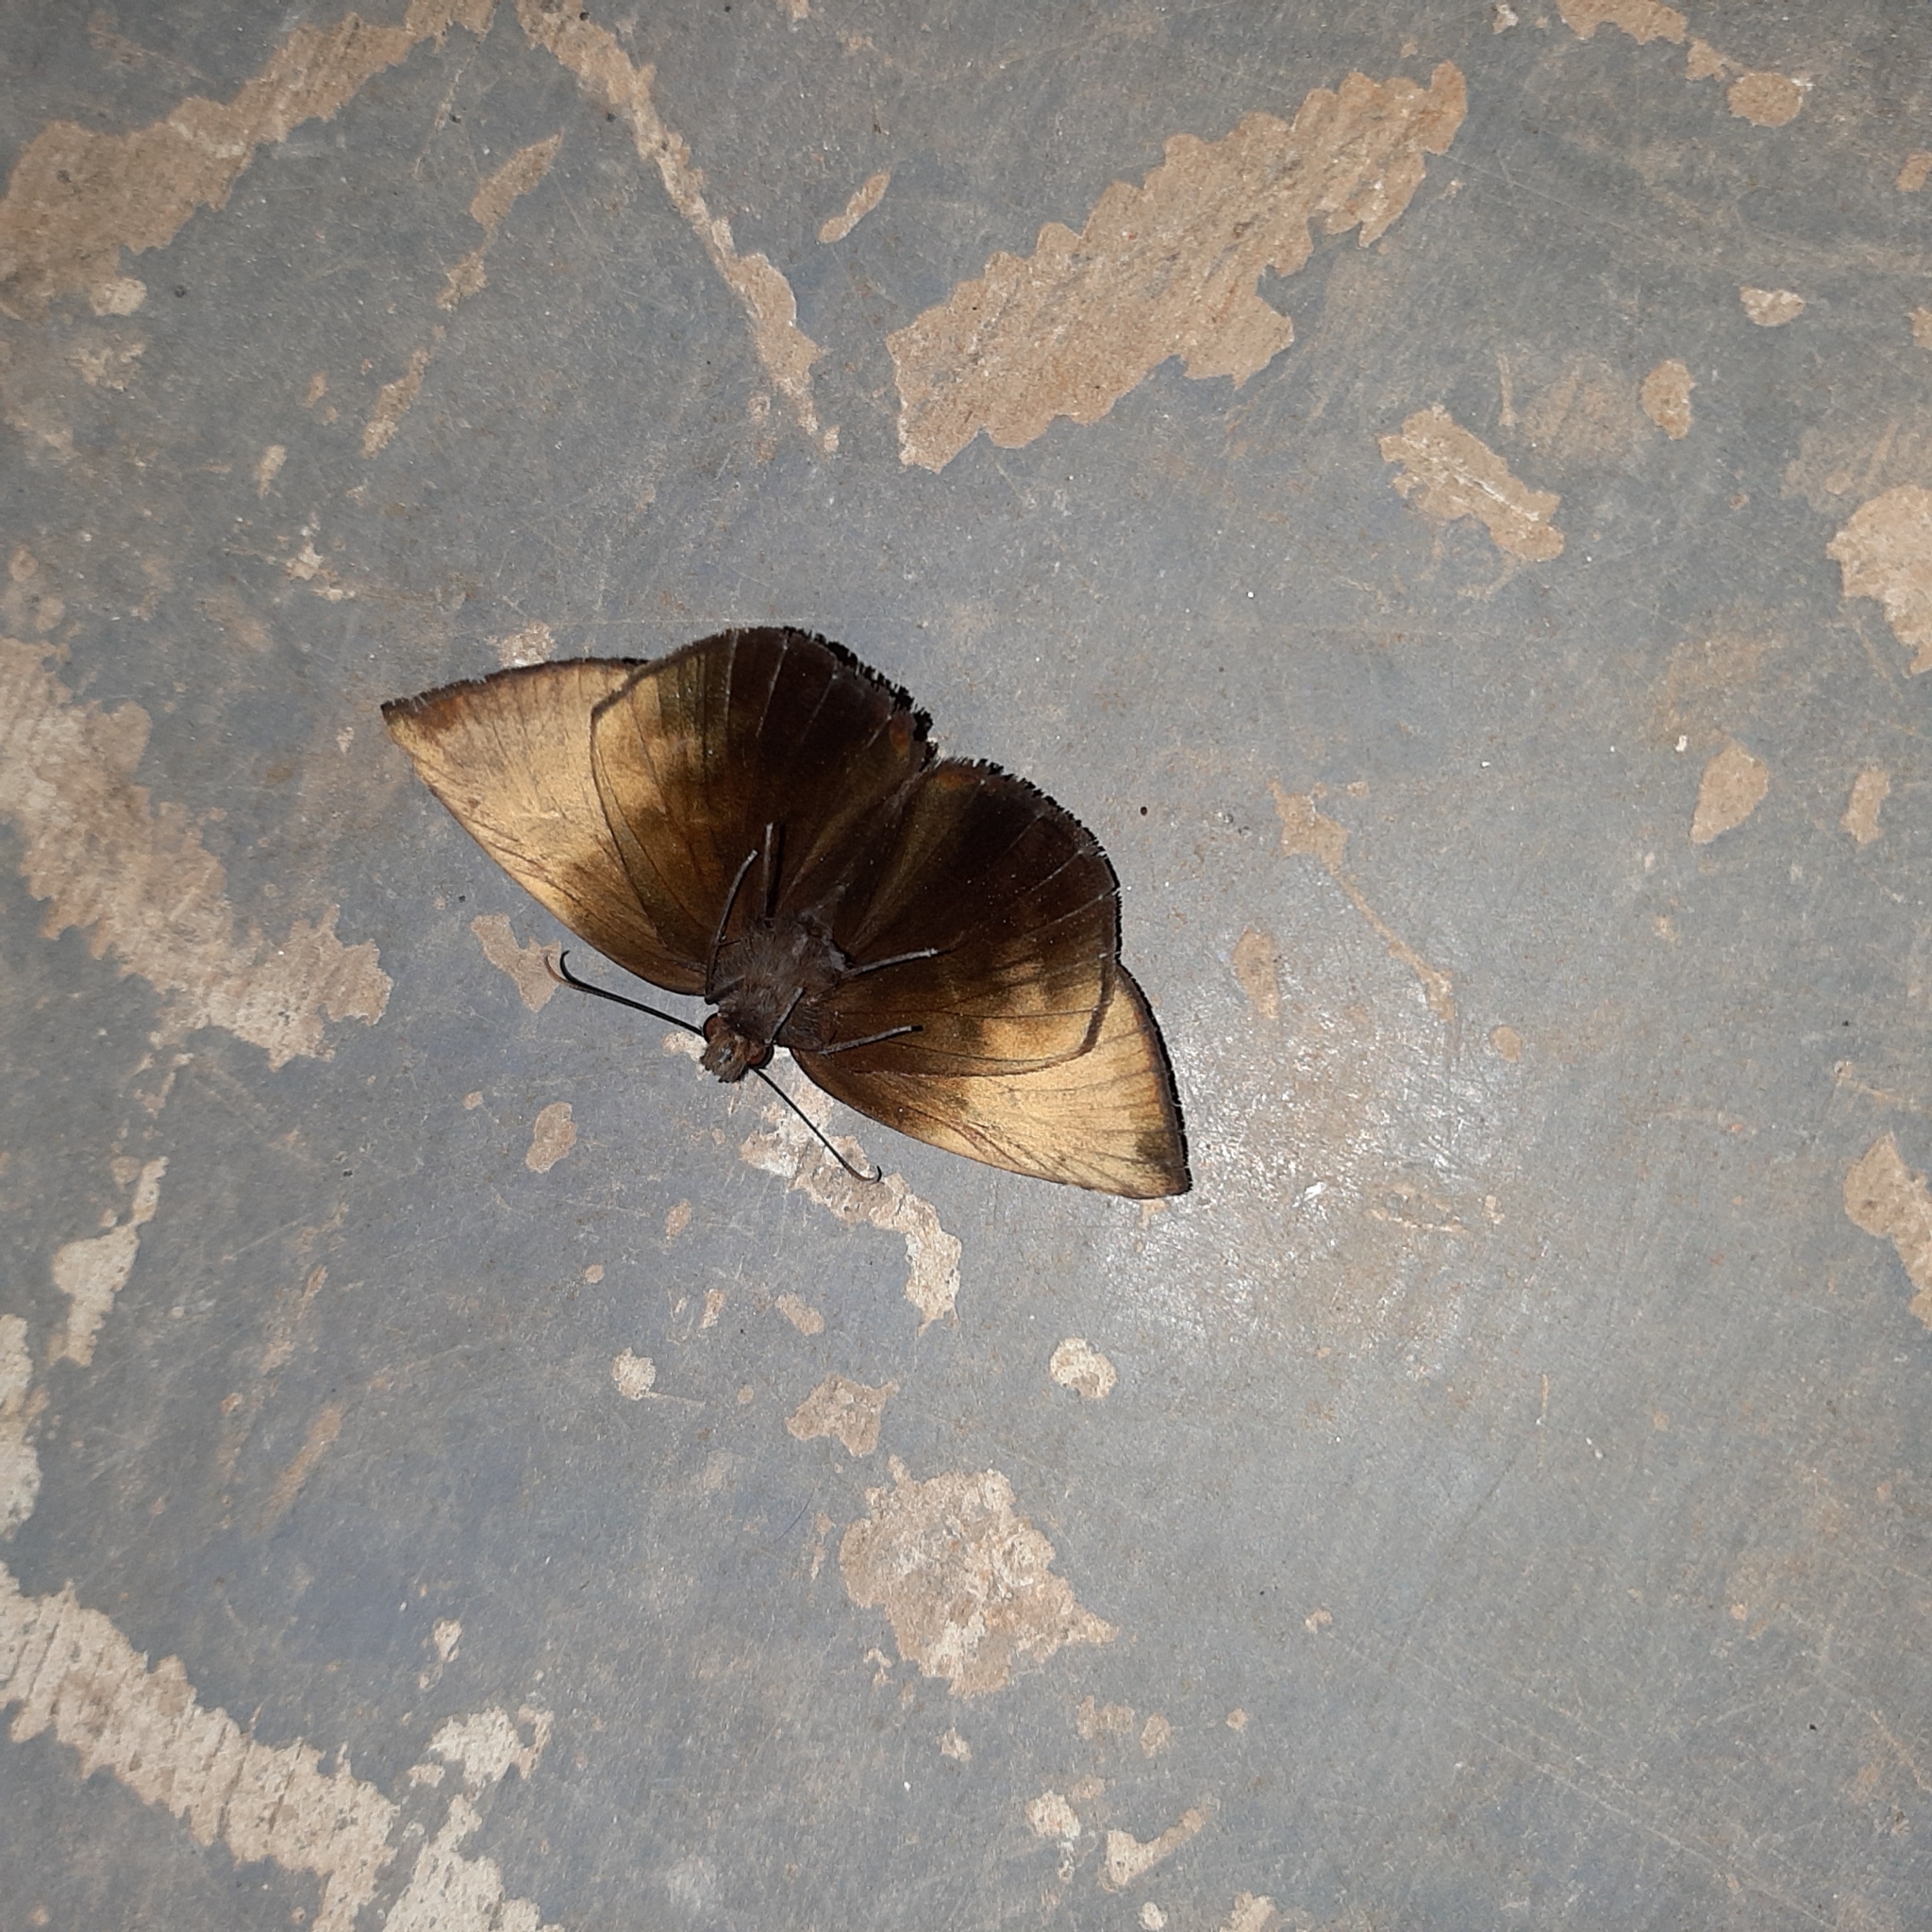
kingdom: Animalia
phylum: Arthropoda
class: Insecta
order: Lepidoptera
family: Hesperiidae
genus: Achlyodes
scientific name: Achlyodes pallida
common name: Pale sicklewing
